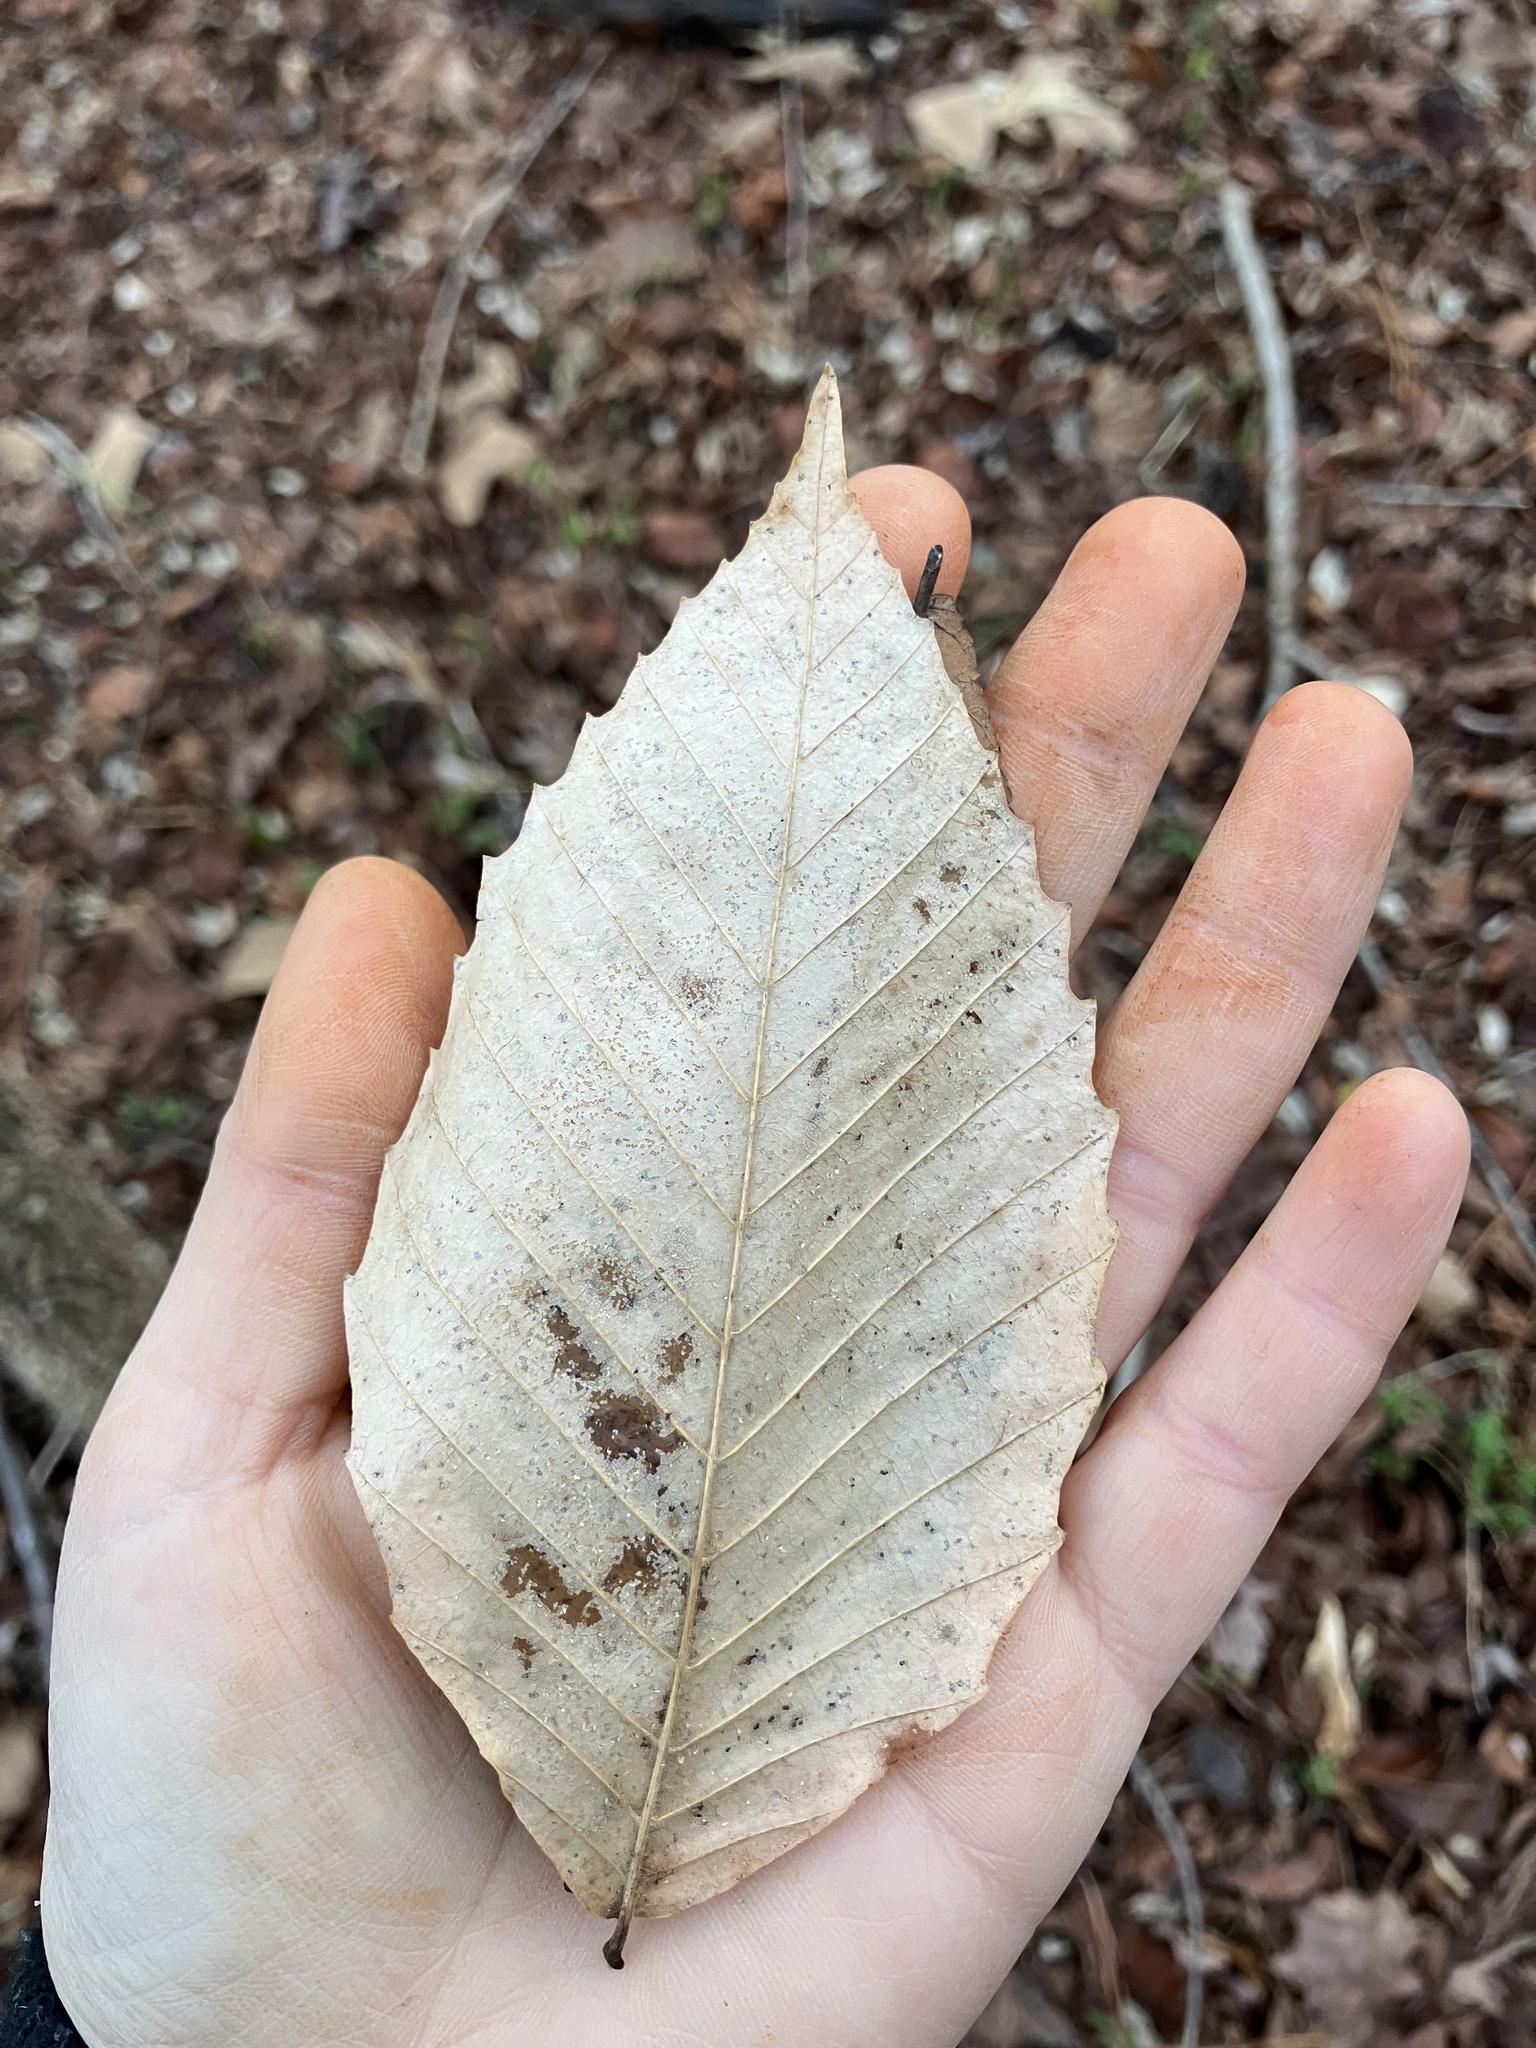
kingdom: Plantae
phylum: Tracheophyta
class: Magnoliopsida
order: Fagales
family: Fagaceae
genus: Fagus
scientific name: Fagus grandifolia
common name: American beech
